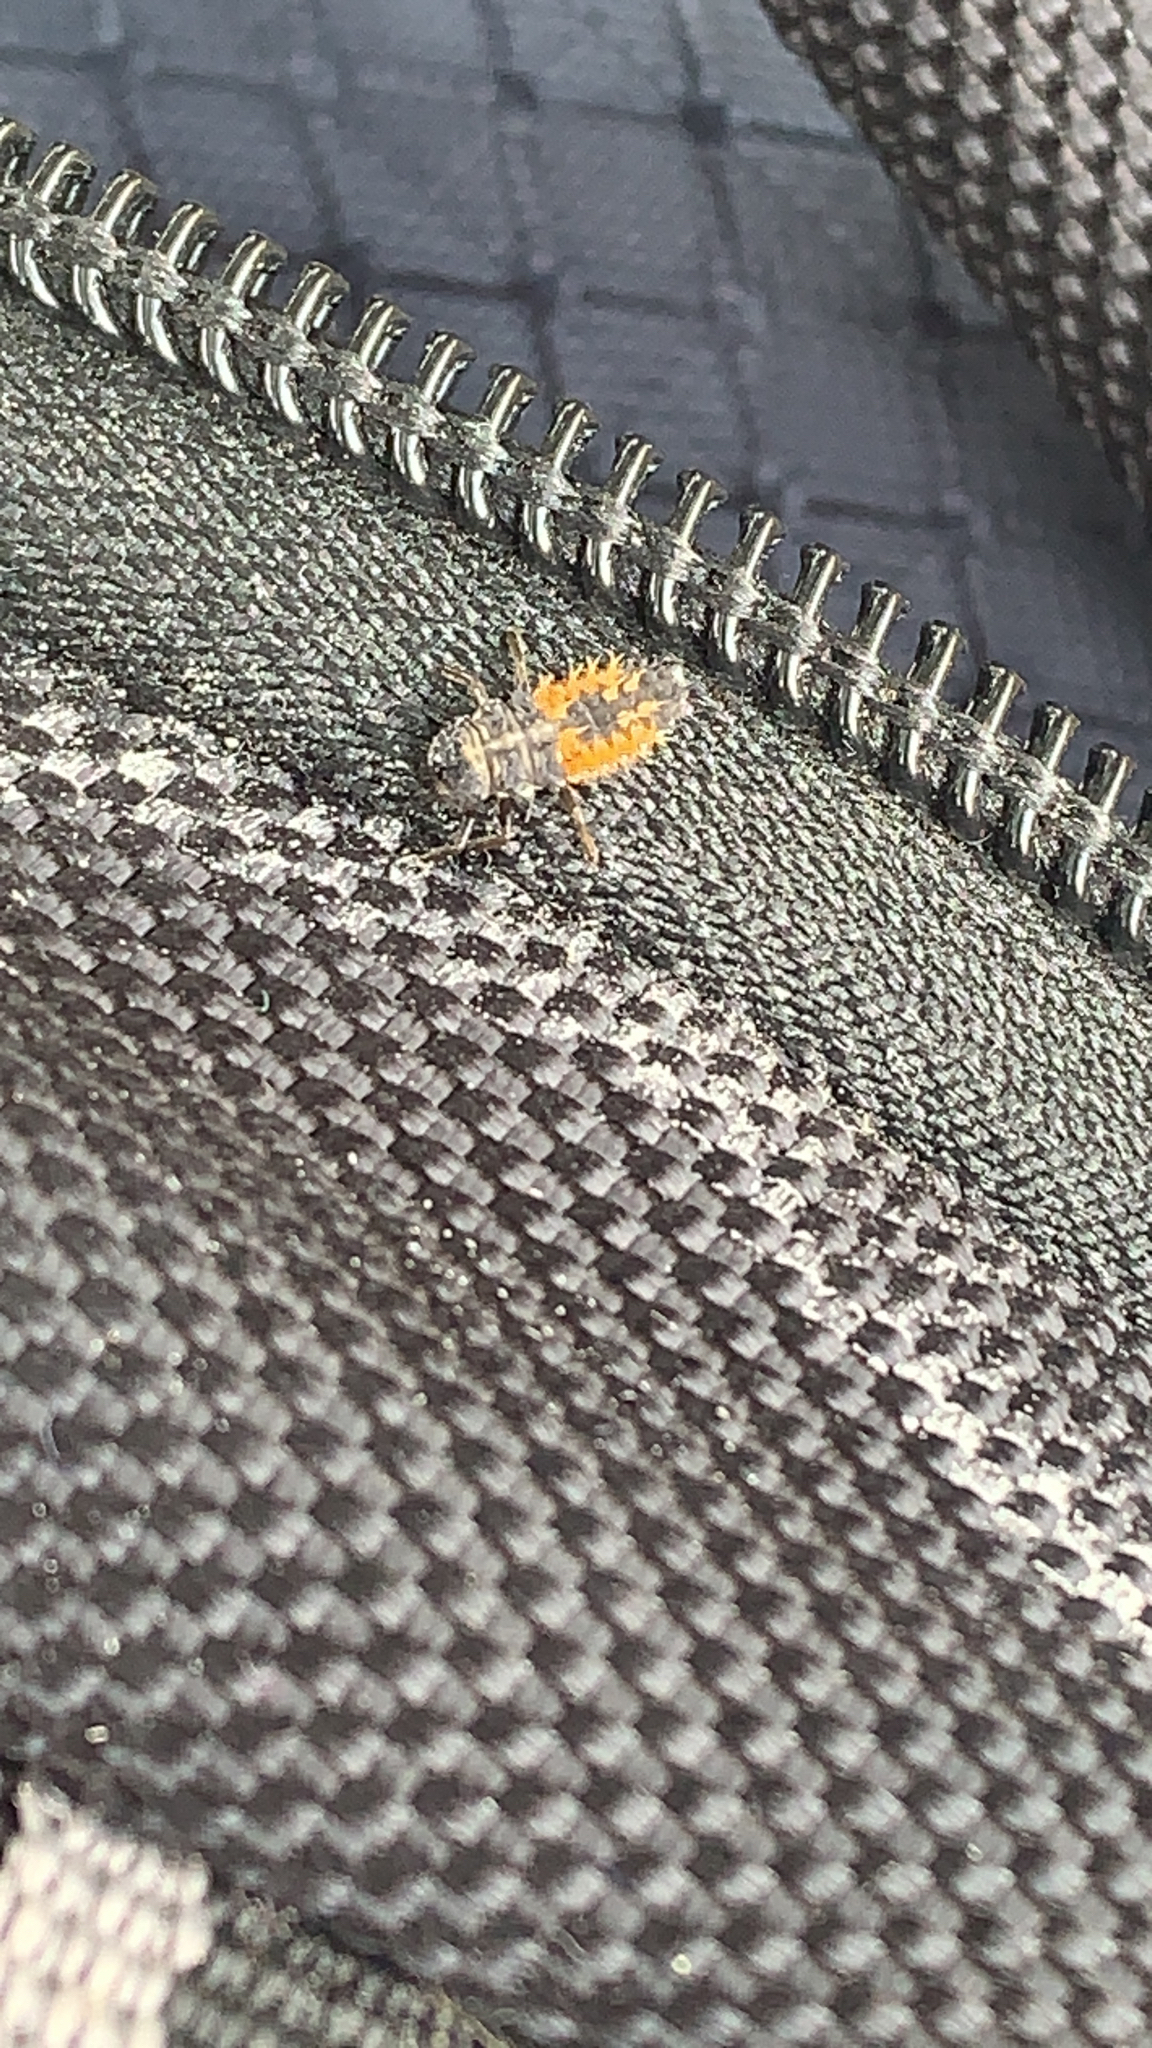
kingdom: Animalia
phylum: Arthropoda
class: Insecta
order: Coleoptera
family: Coccinellidae
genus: Harmonia
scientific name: Harmonia axyridis
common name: Harlequin ladybird
